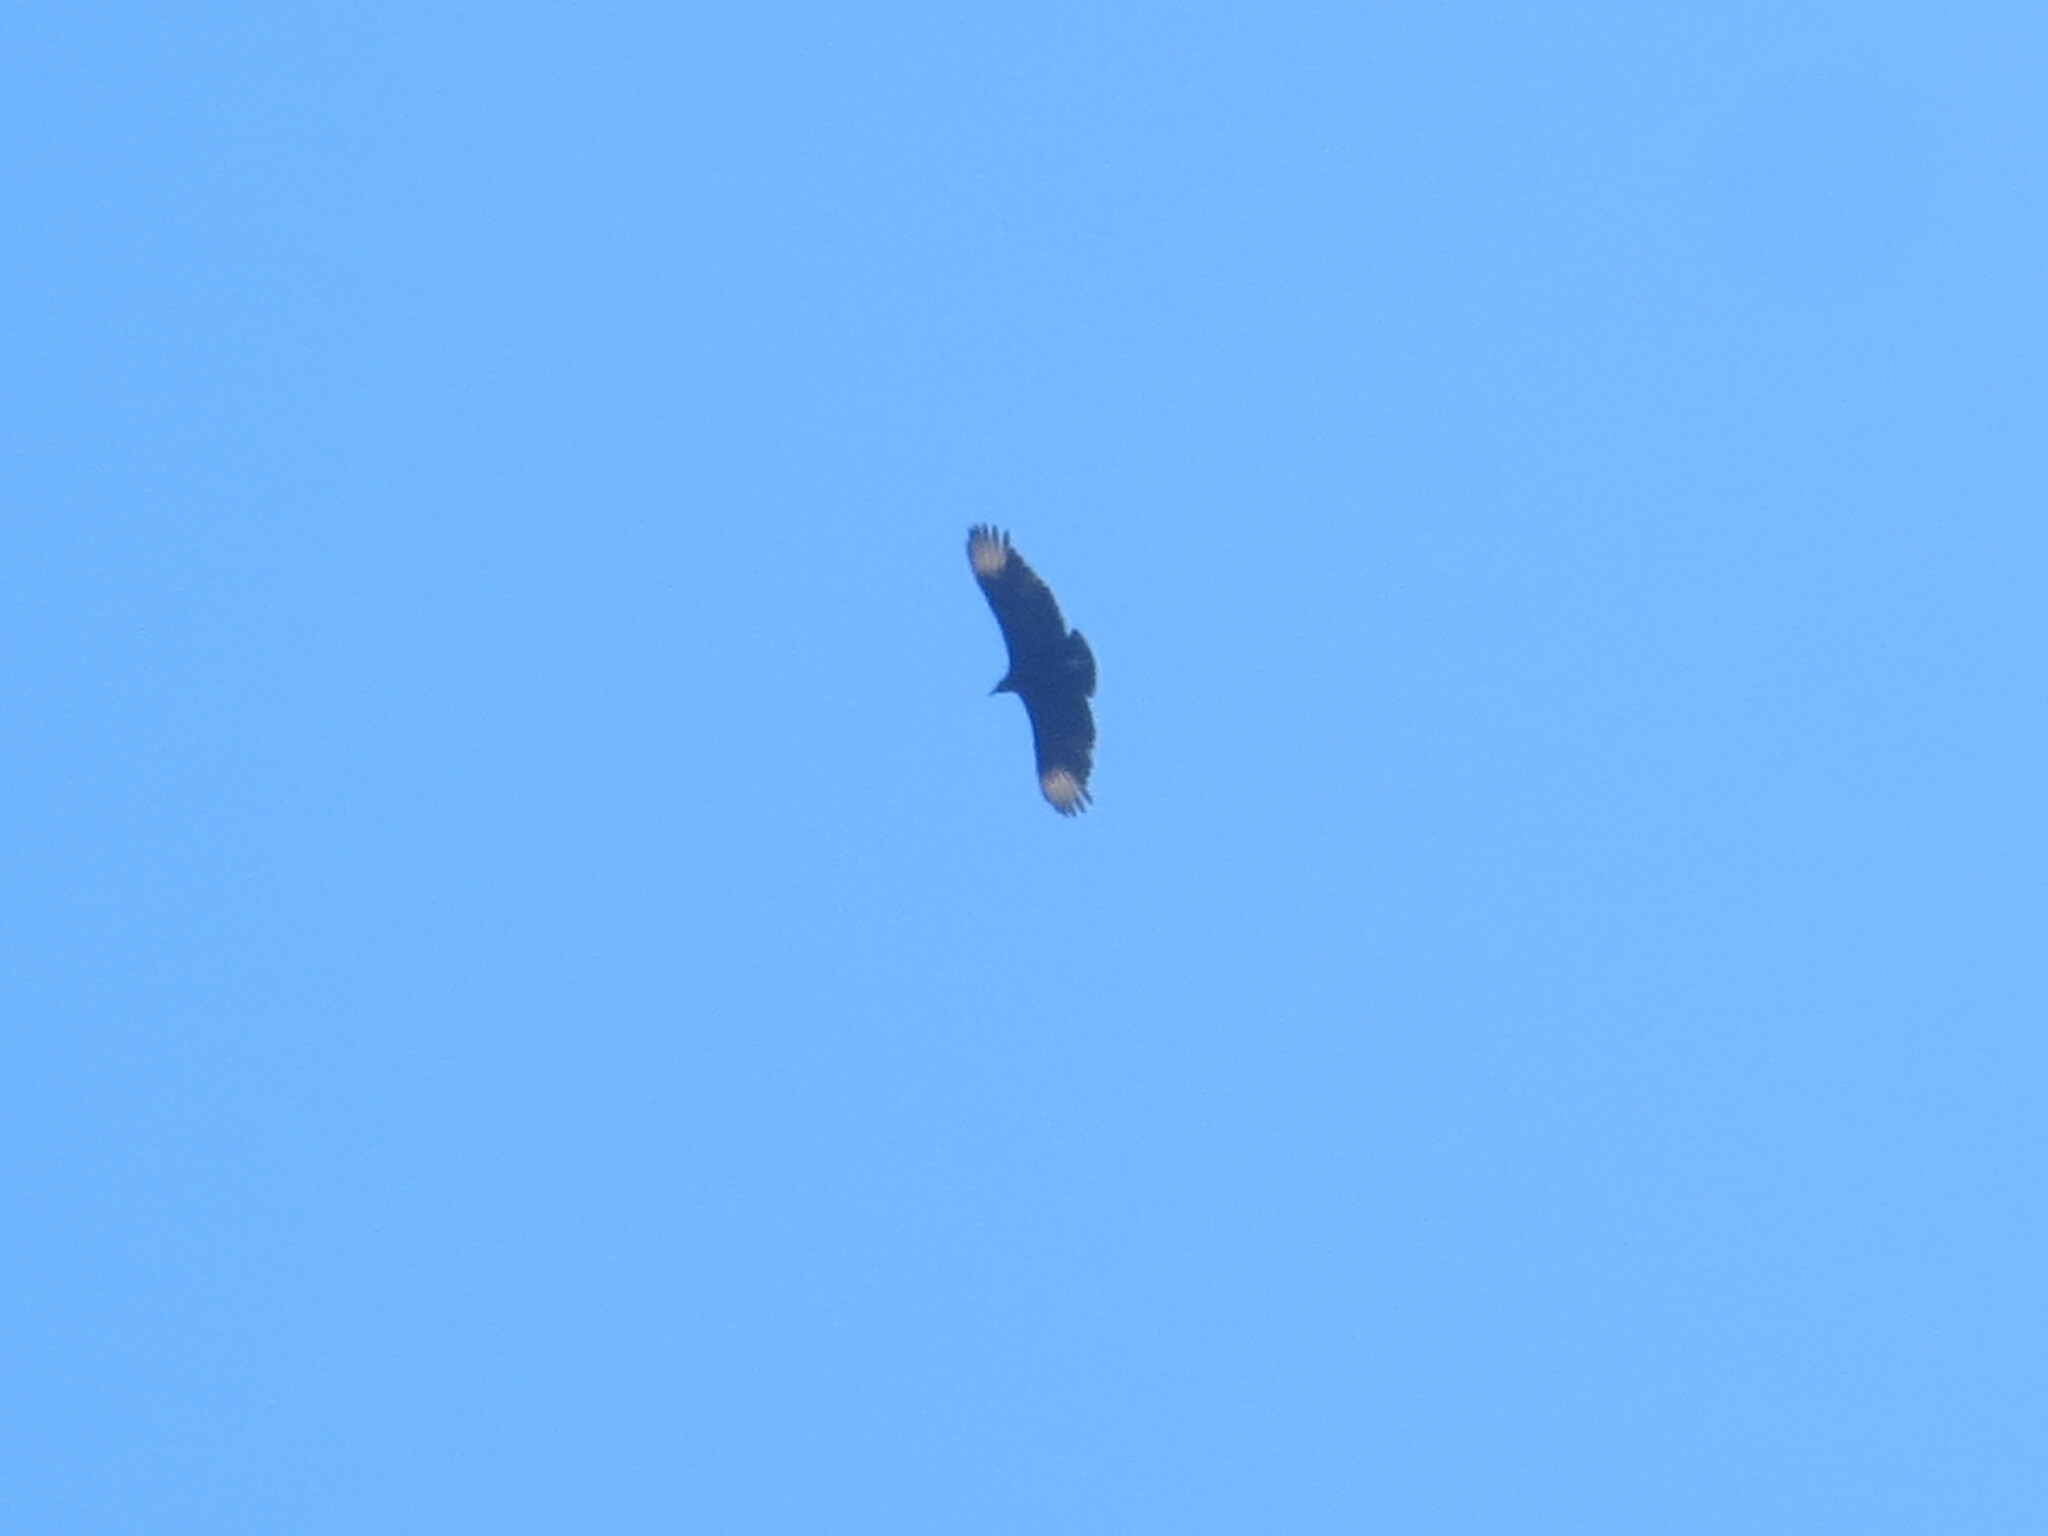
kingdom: Animalia
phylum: Chordata
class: Aves
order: Accipitriformes
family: Cathartidae
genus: Coragyps
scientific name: Coragyps atratus
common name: Black vulture
